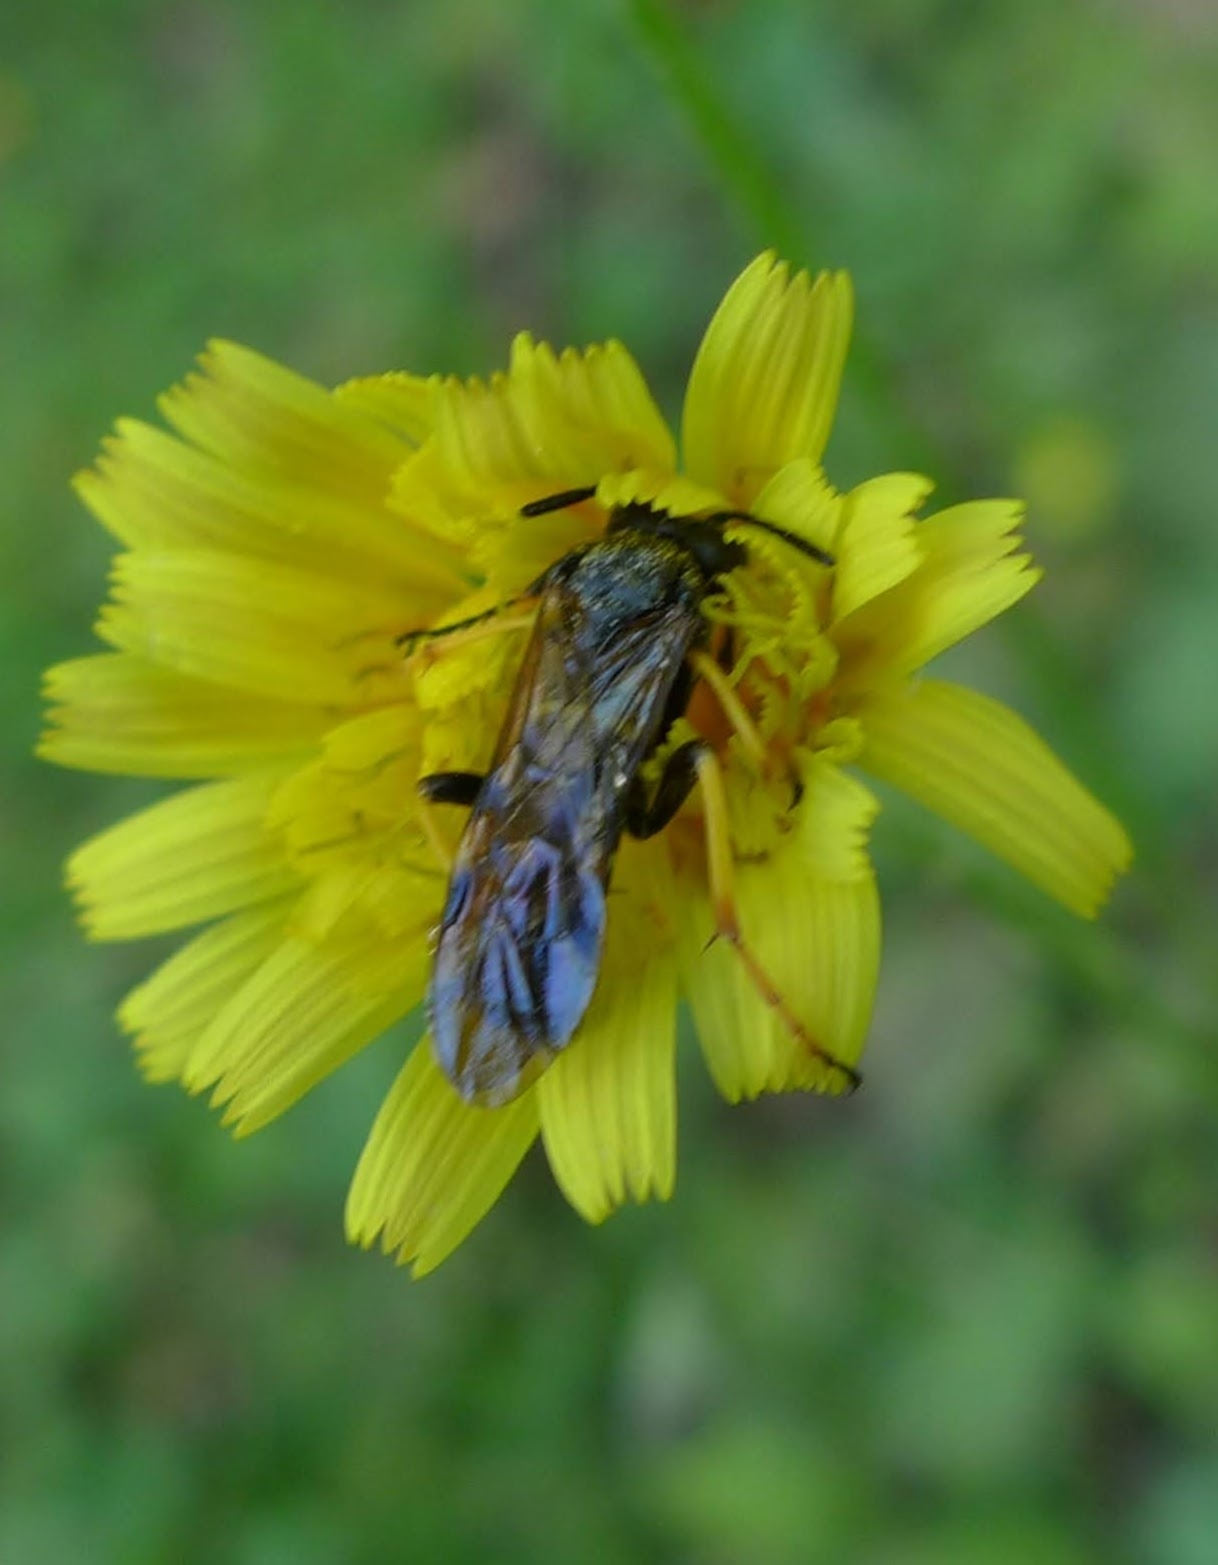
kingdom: Animalia
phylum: Arthropoda
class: Insecta
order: Hymenoptera
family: Tenthredinidae
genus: Tenthredo
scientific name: Tenthredo koehleri
